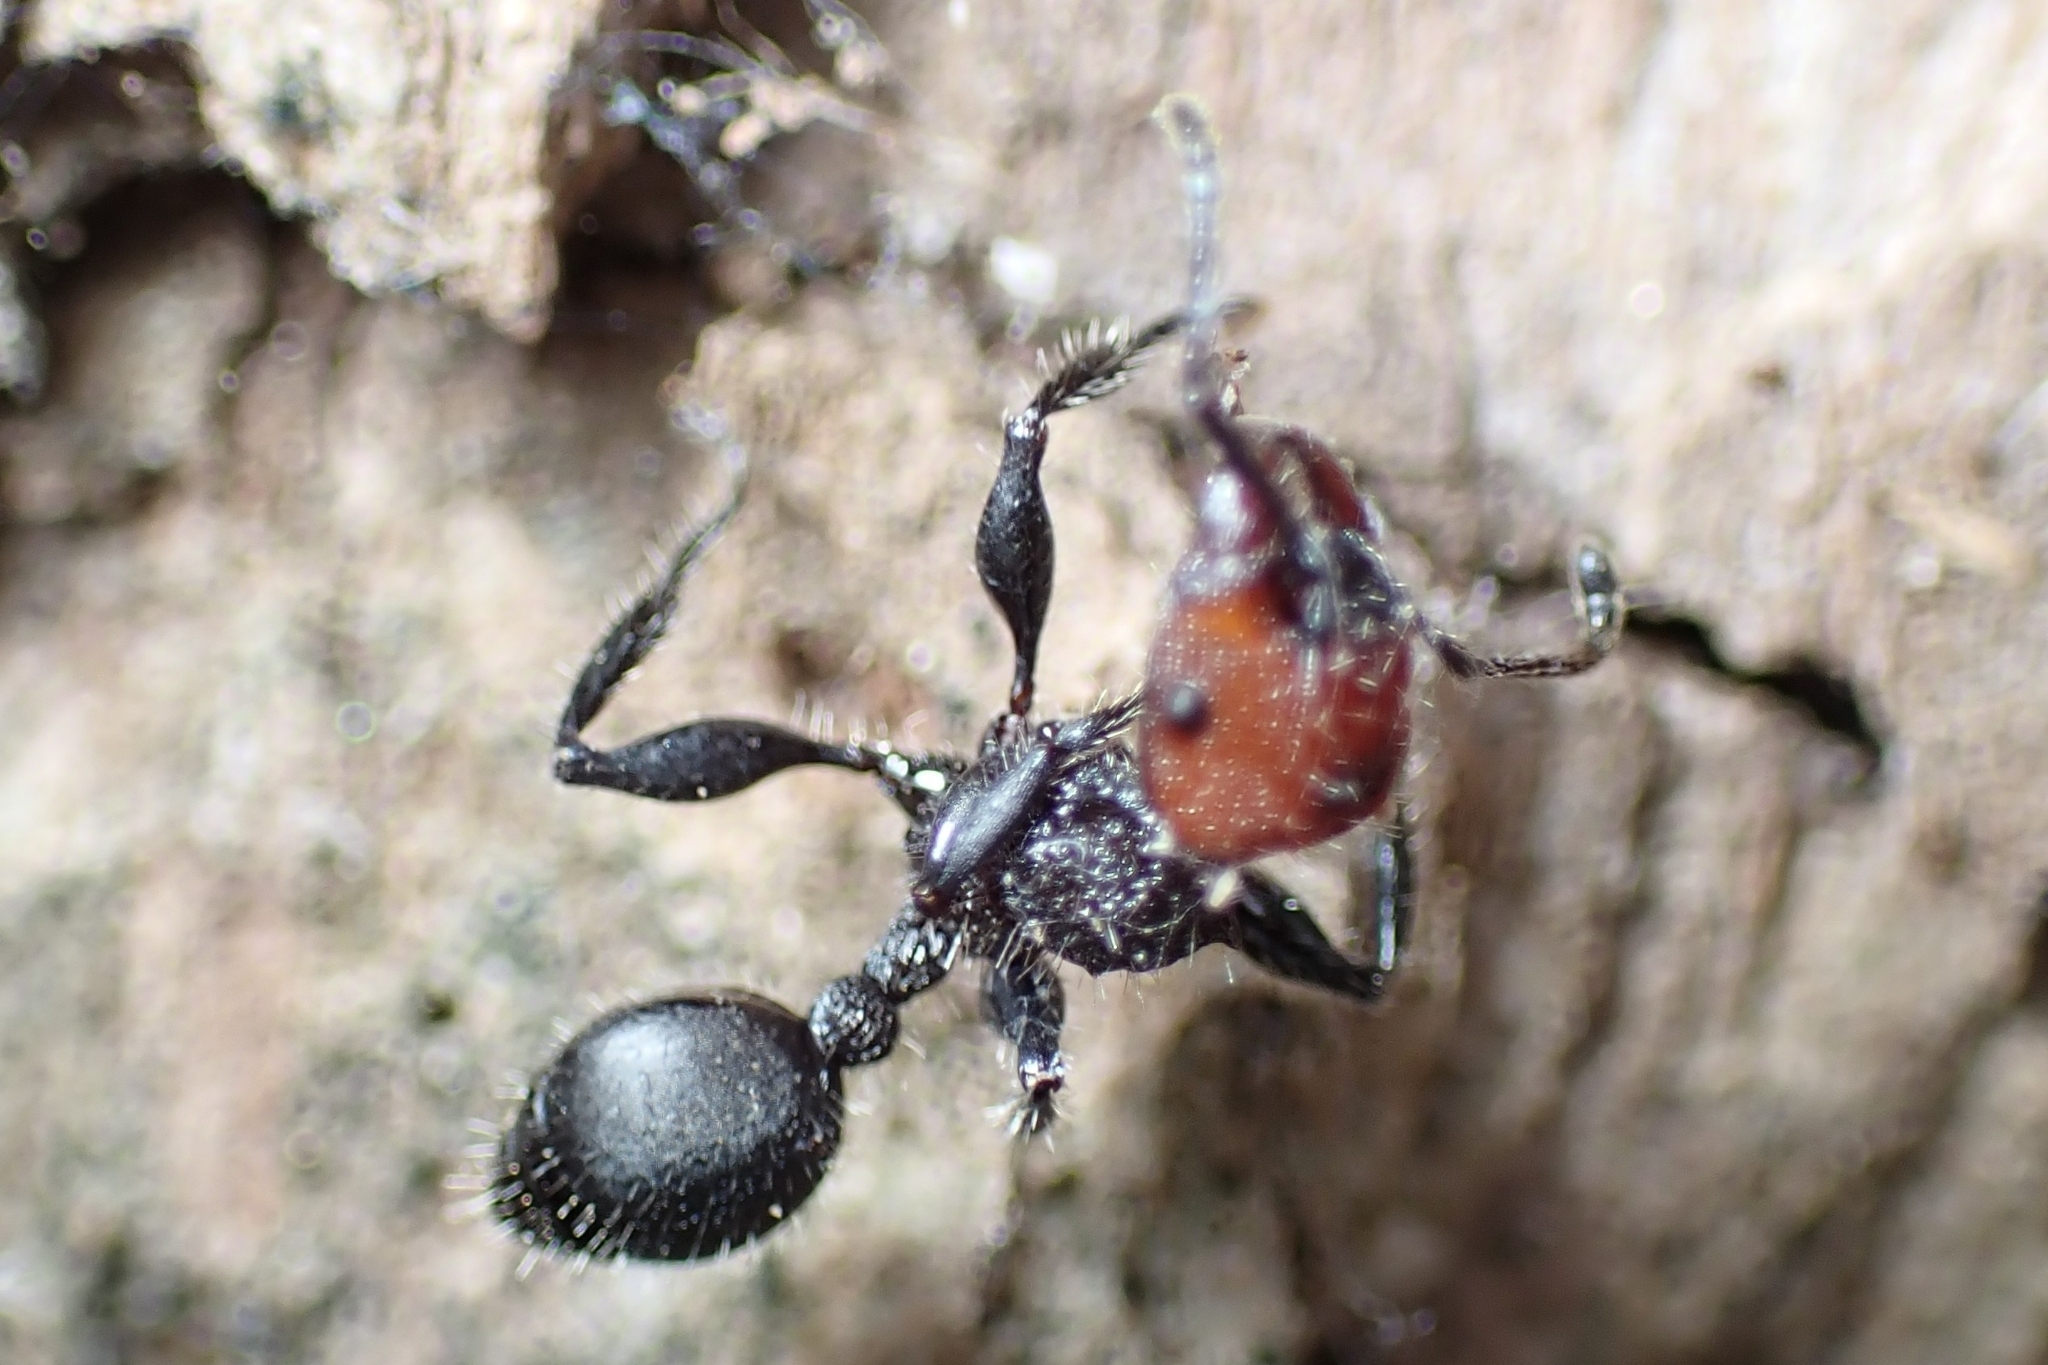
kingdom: Animalia
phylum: Arthropoda
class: Insecta
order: Hymenoptera
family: Formicidae
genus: Podomyrma
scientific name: Podomyrma micans
